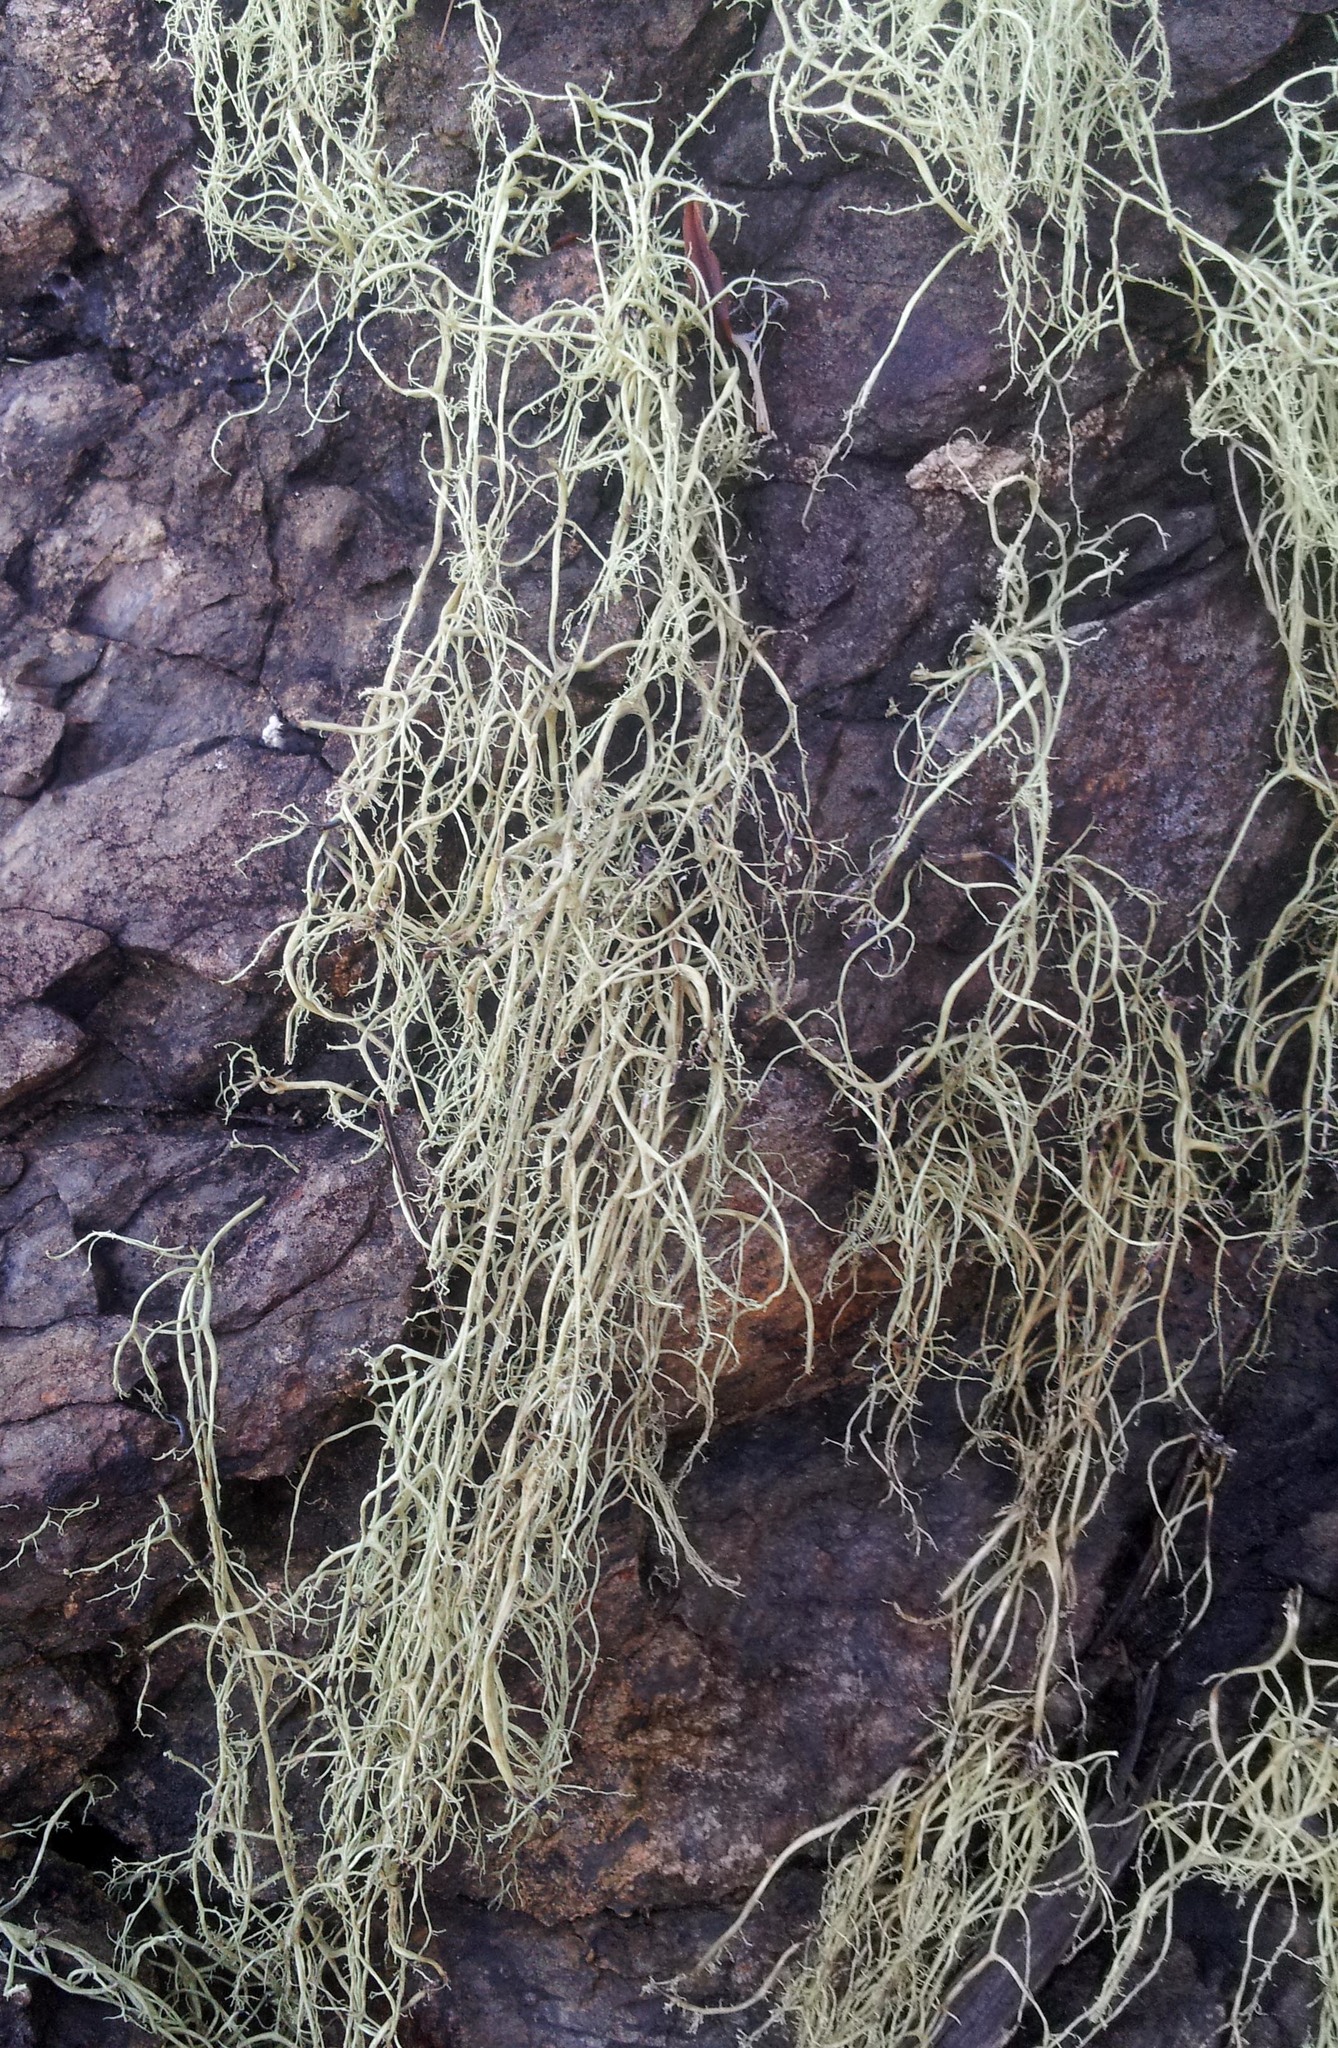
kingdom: Fungi
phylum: Ascomycota
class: Lecanoromycetes
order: Lecanorales
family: Ramalinaceae
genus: Ramalina
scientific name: Ramalina australiensis
